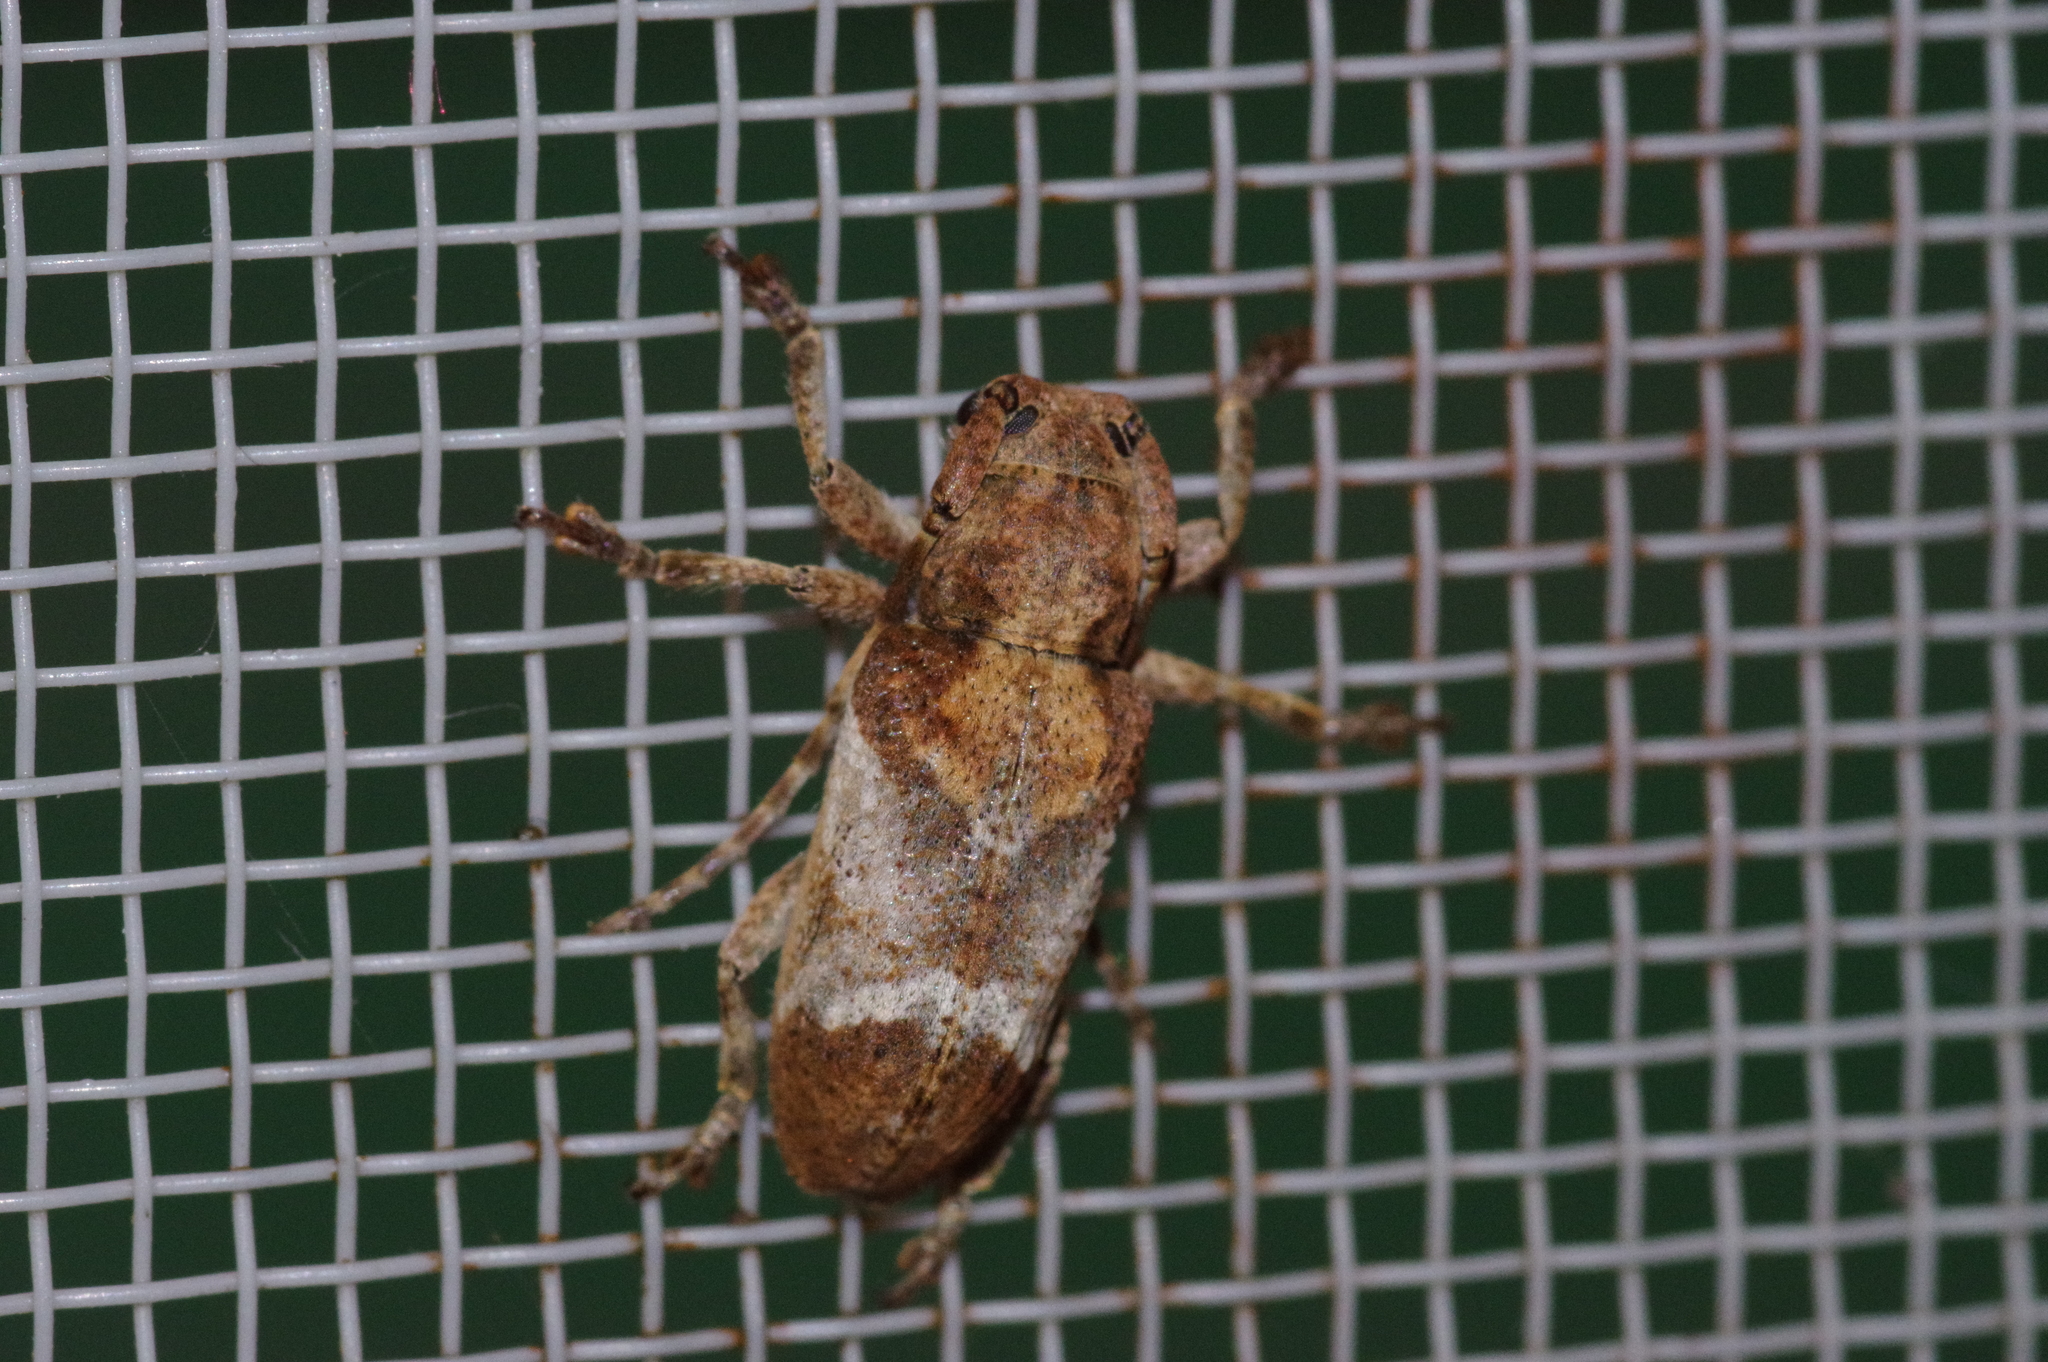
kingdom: Animalia
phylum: Arthropoda
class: Insecta
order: Coleoptera
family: Cerambycidae
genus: Pterolophia
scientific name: Pterolophia annulata
